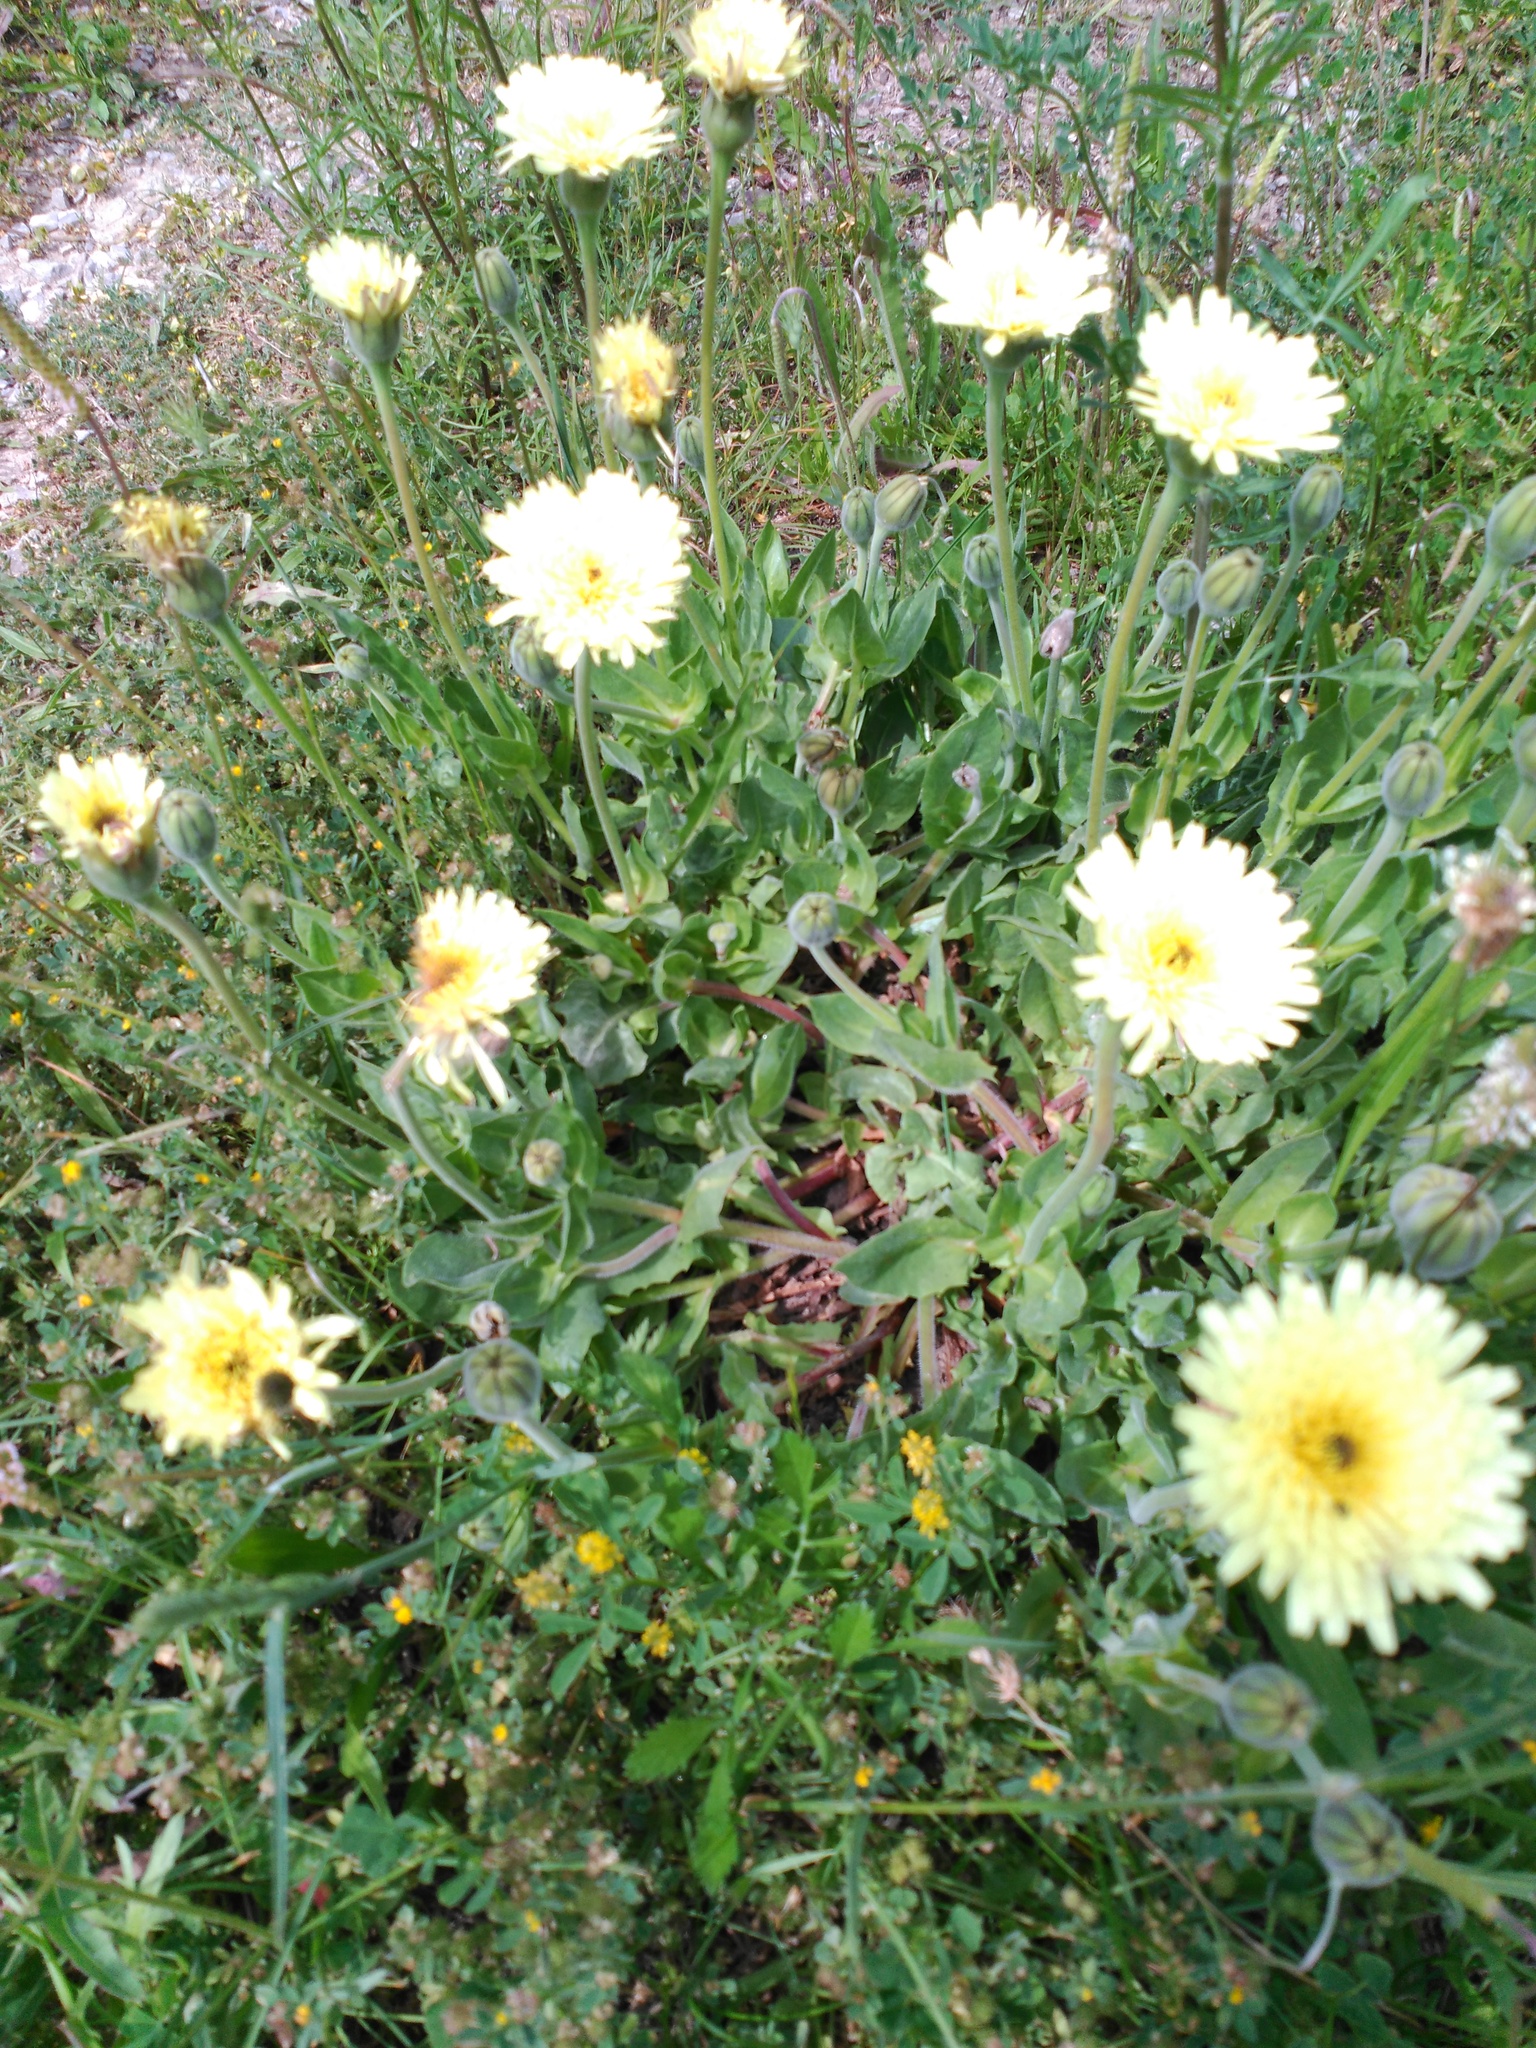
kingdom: Plantae
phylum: Tracheophyta
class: Magnoliopsida
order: Asterales
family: Asteraceae
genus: Urospermum
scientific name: Urospermum dalechampii
